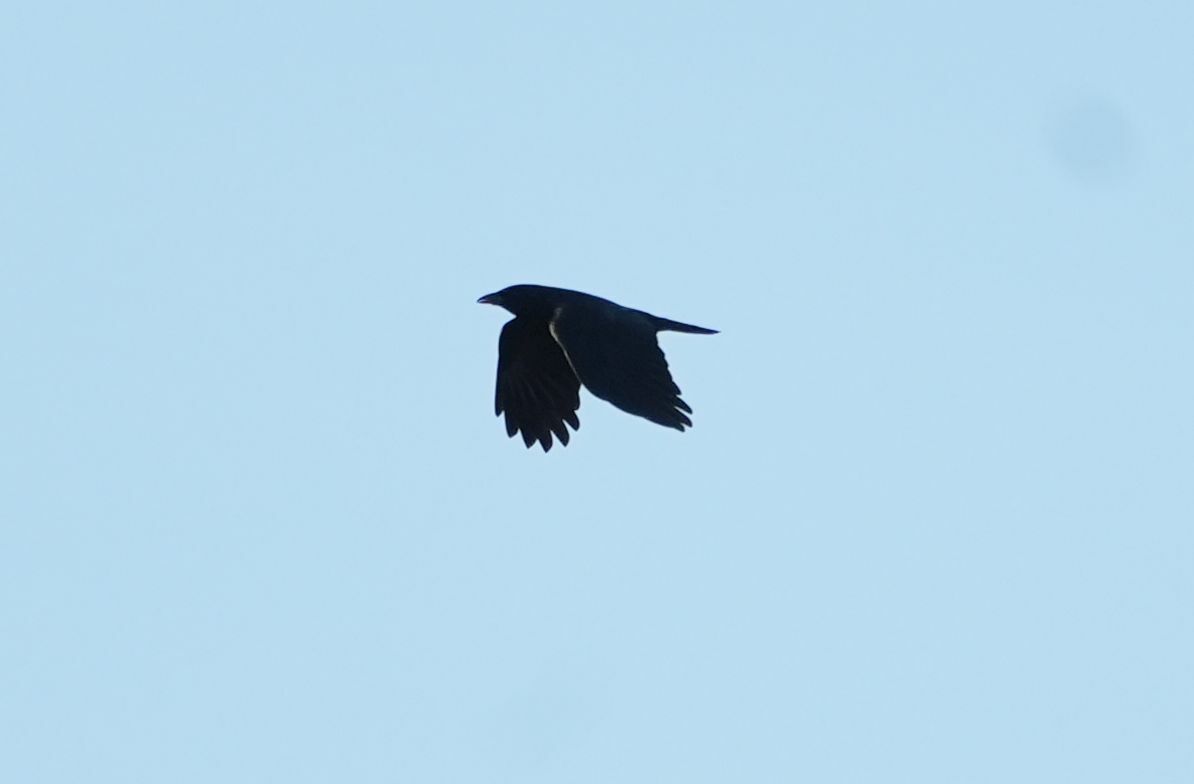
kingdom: Animalia
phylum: Chordata
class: Aves
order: Passeriformes
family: Corvidae
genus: Corvus
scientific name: Corvus brachyrhynchos
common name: American crow
